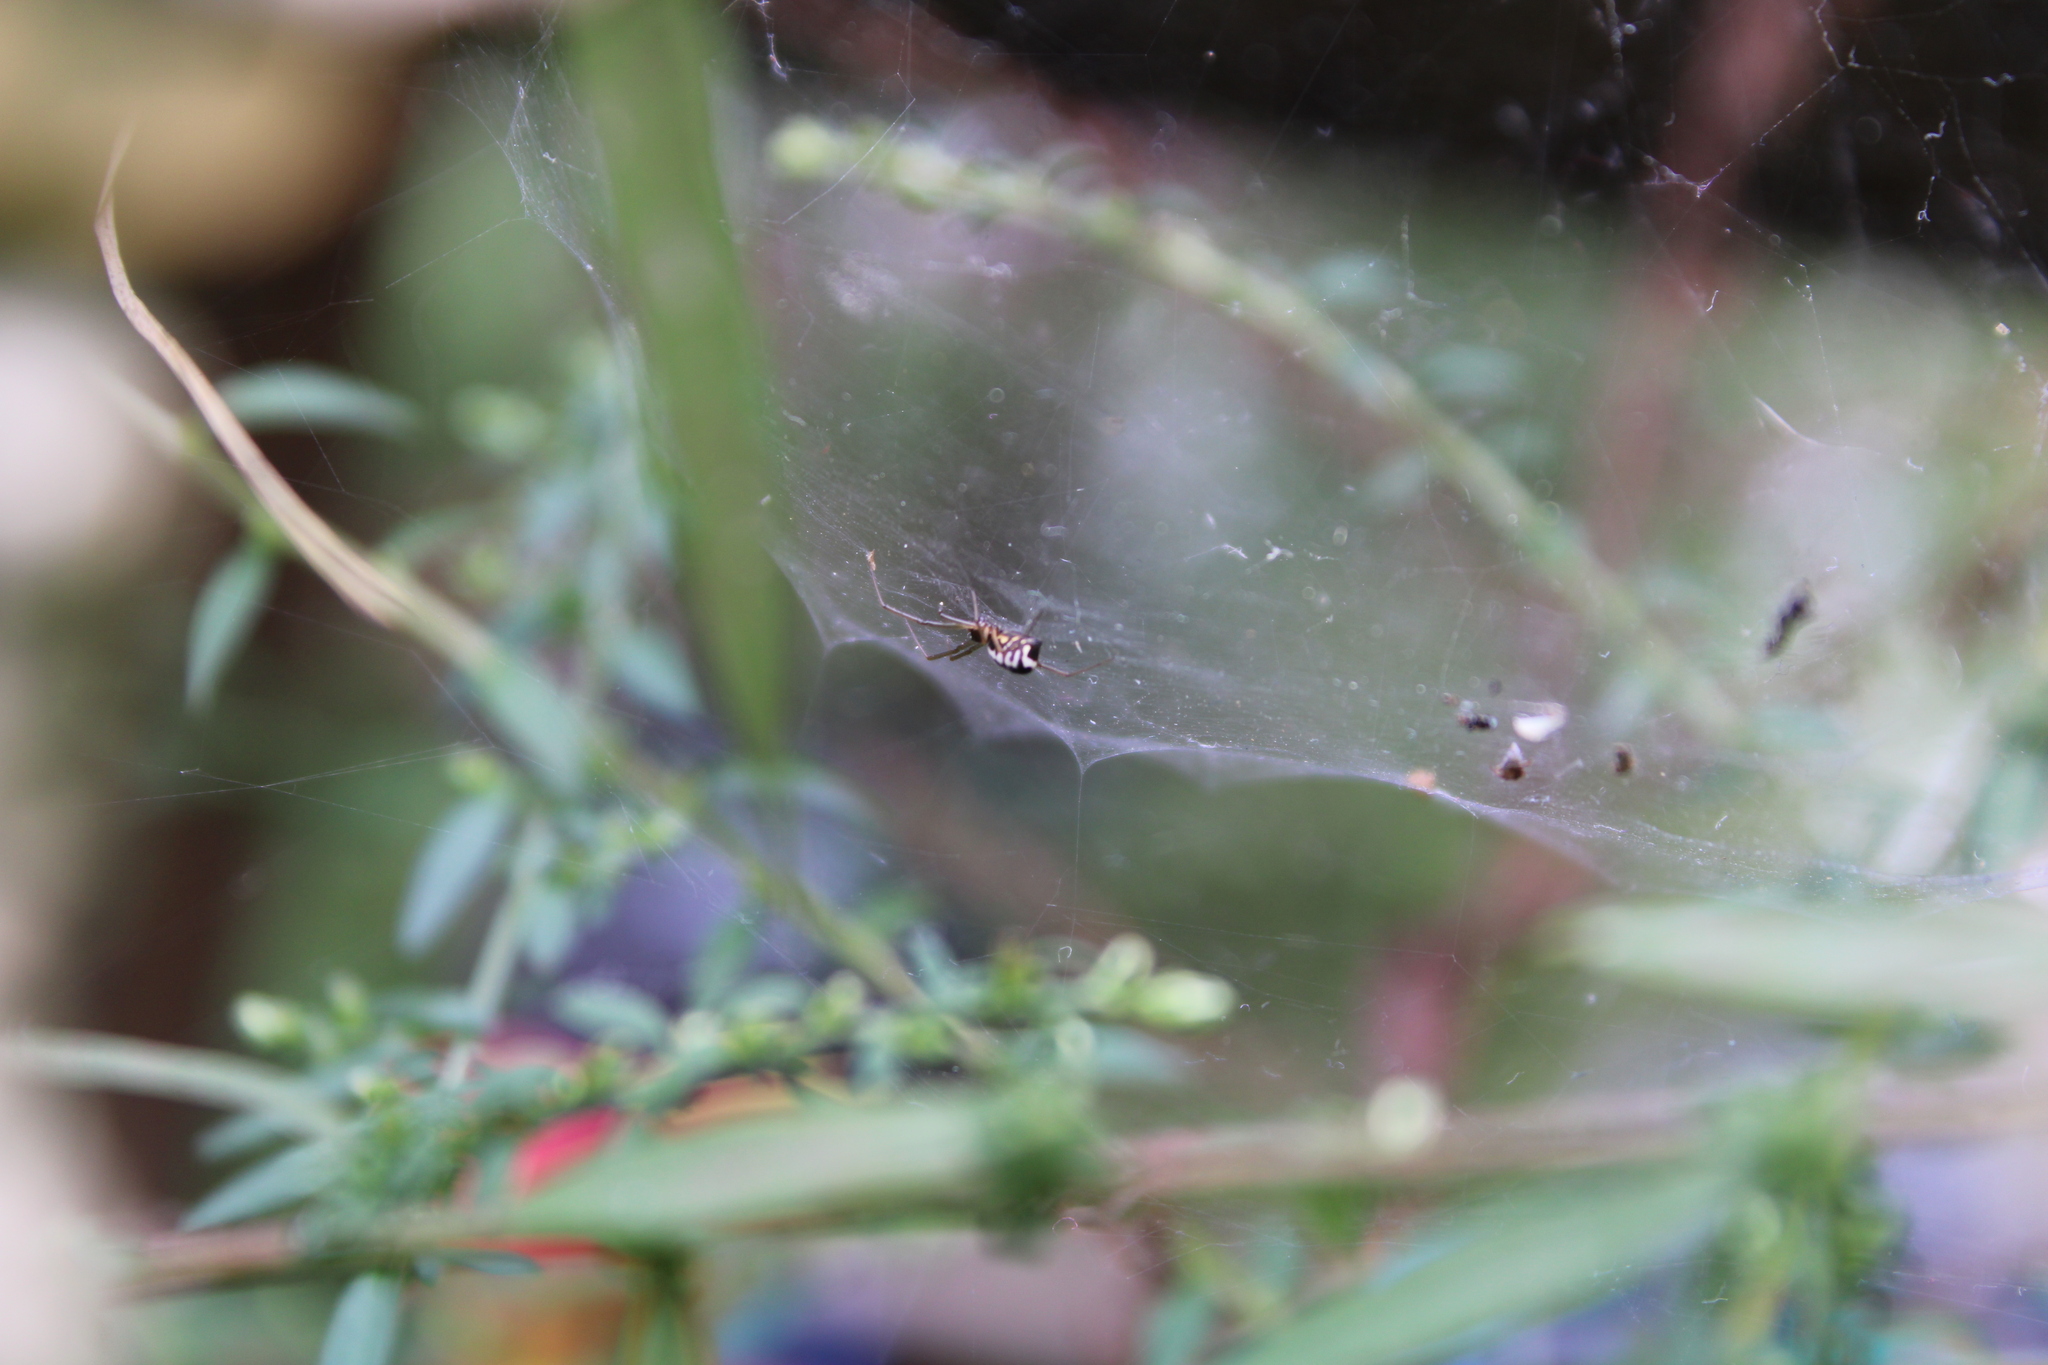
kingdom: Animalia
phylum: Arthropoda
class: Arachnida
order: Araneae
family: Linyphiidae
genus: Frontinella
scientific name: Frontinella pyramitela
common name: Bowl-and-doily spider
